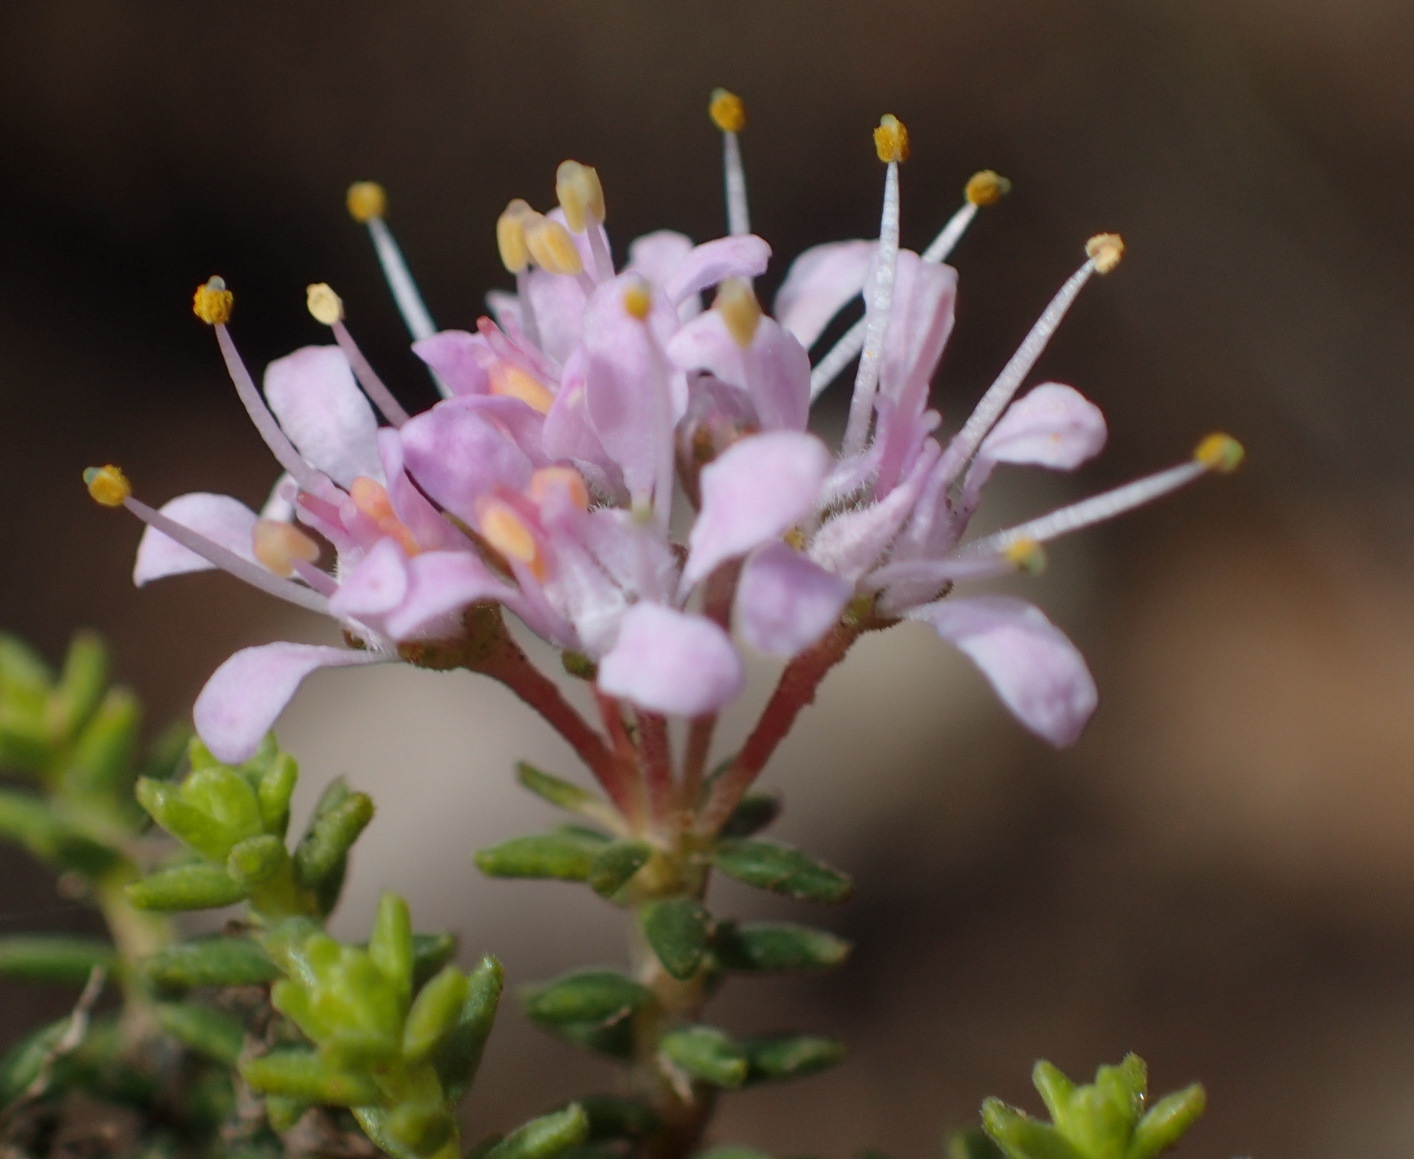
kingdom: Plantae
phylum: Tracheophyta
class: Magnoliopsida
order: Sapindales
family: Rutaceae
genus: Agathosma
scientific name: Agathosma capensis
